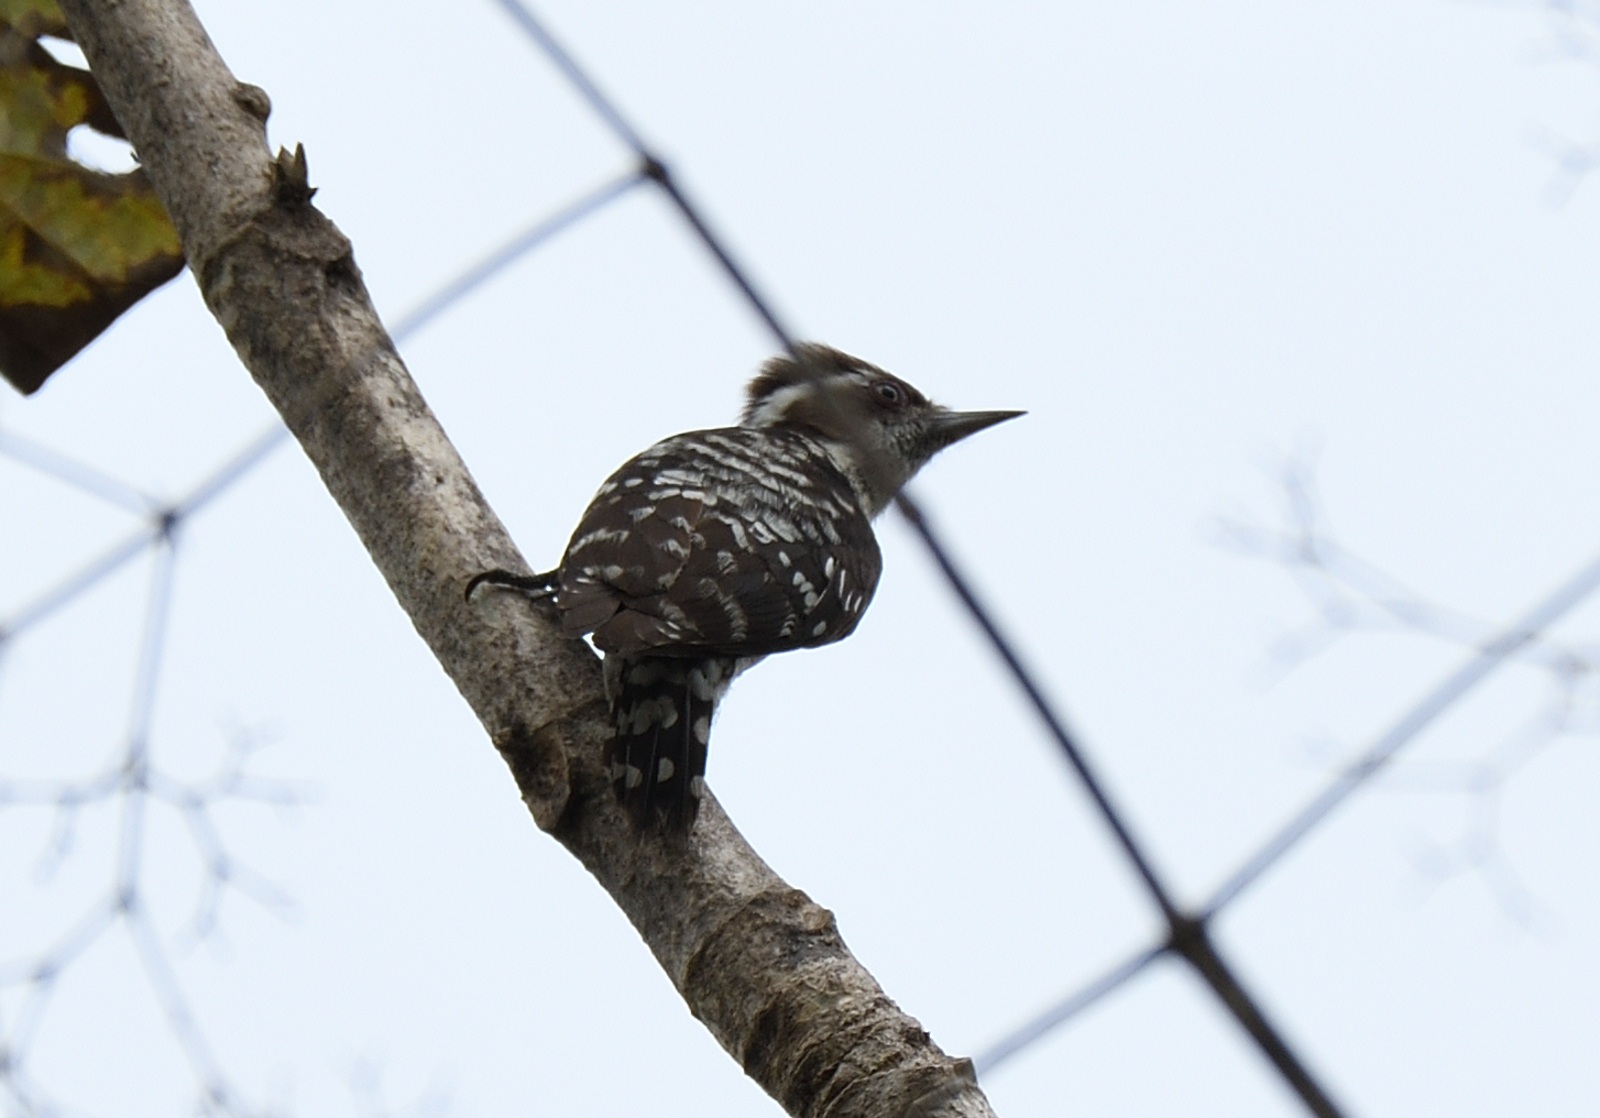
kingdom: Animalia
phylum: Chordata
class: Aves
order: Piciformes
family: Picidae
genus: Yungipicus
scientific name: Yungipicus nanus
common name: Brown-capped pygmy woodpecker
